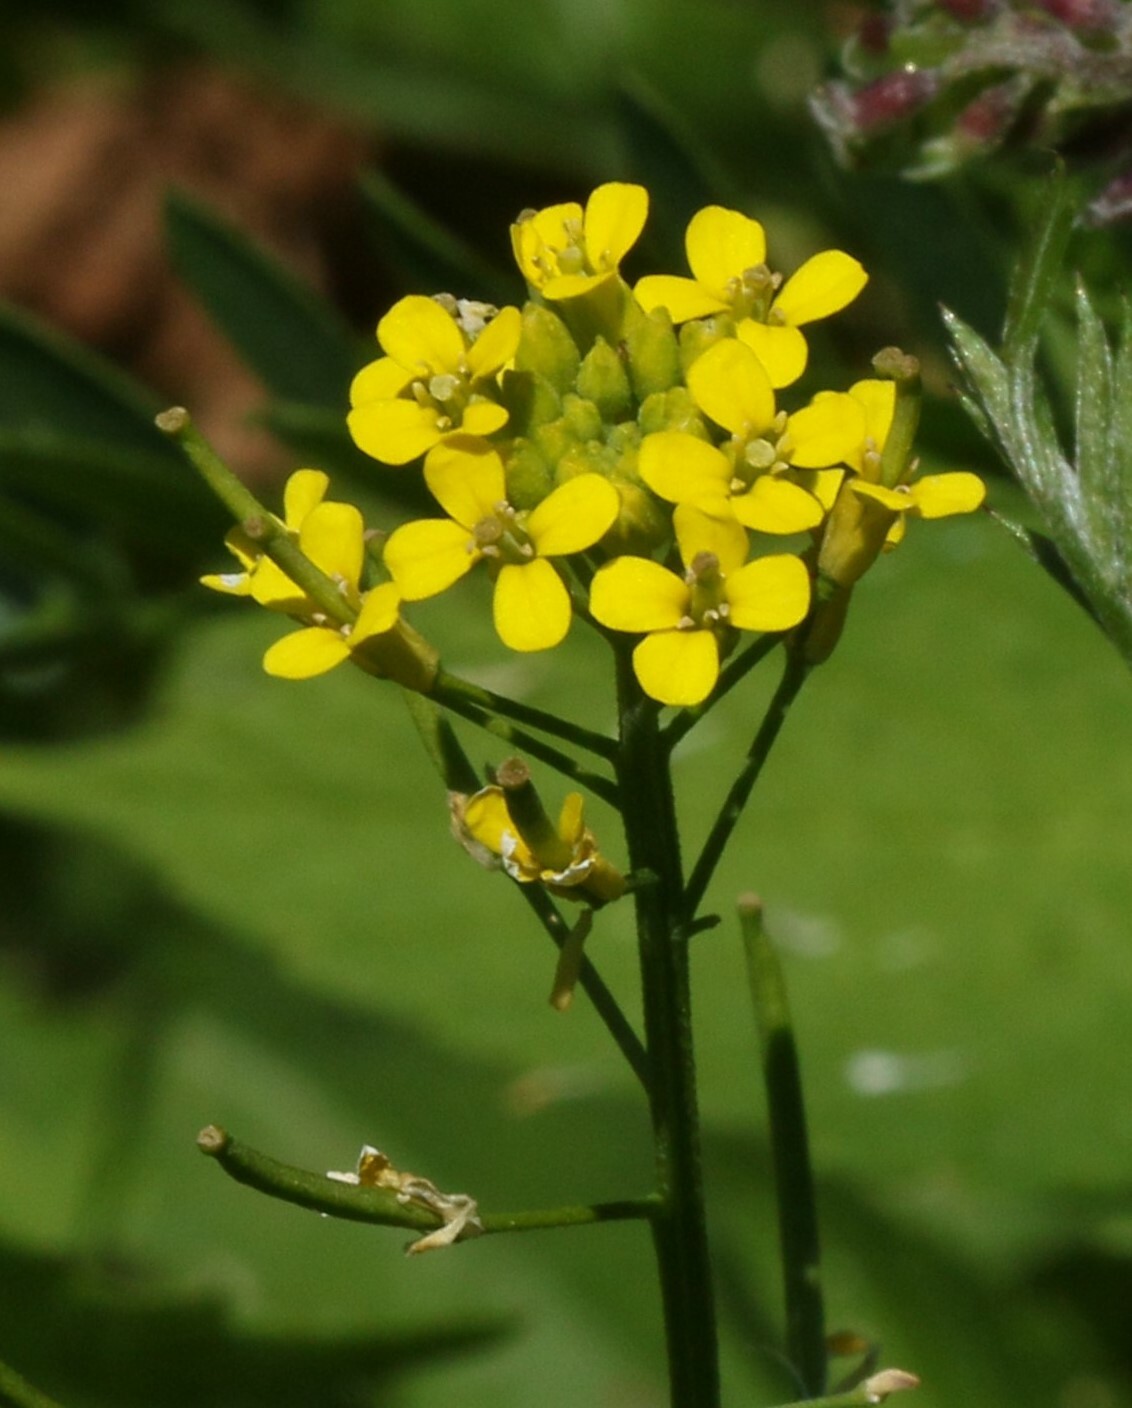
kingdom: Plantae
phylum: Tracheophyta
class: Magnoliopsida
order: Brassicales
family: Brassicaceae
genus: Erysimum
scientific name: Erysimum cheiranthoides
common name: Treacle mustard
